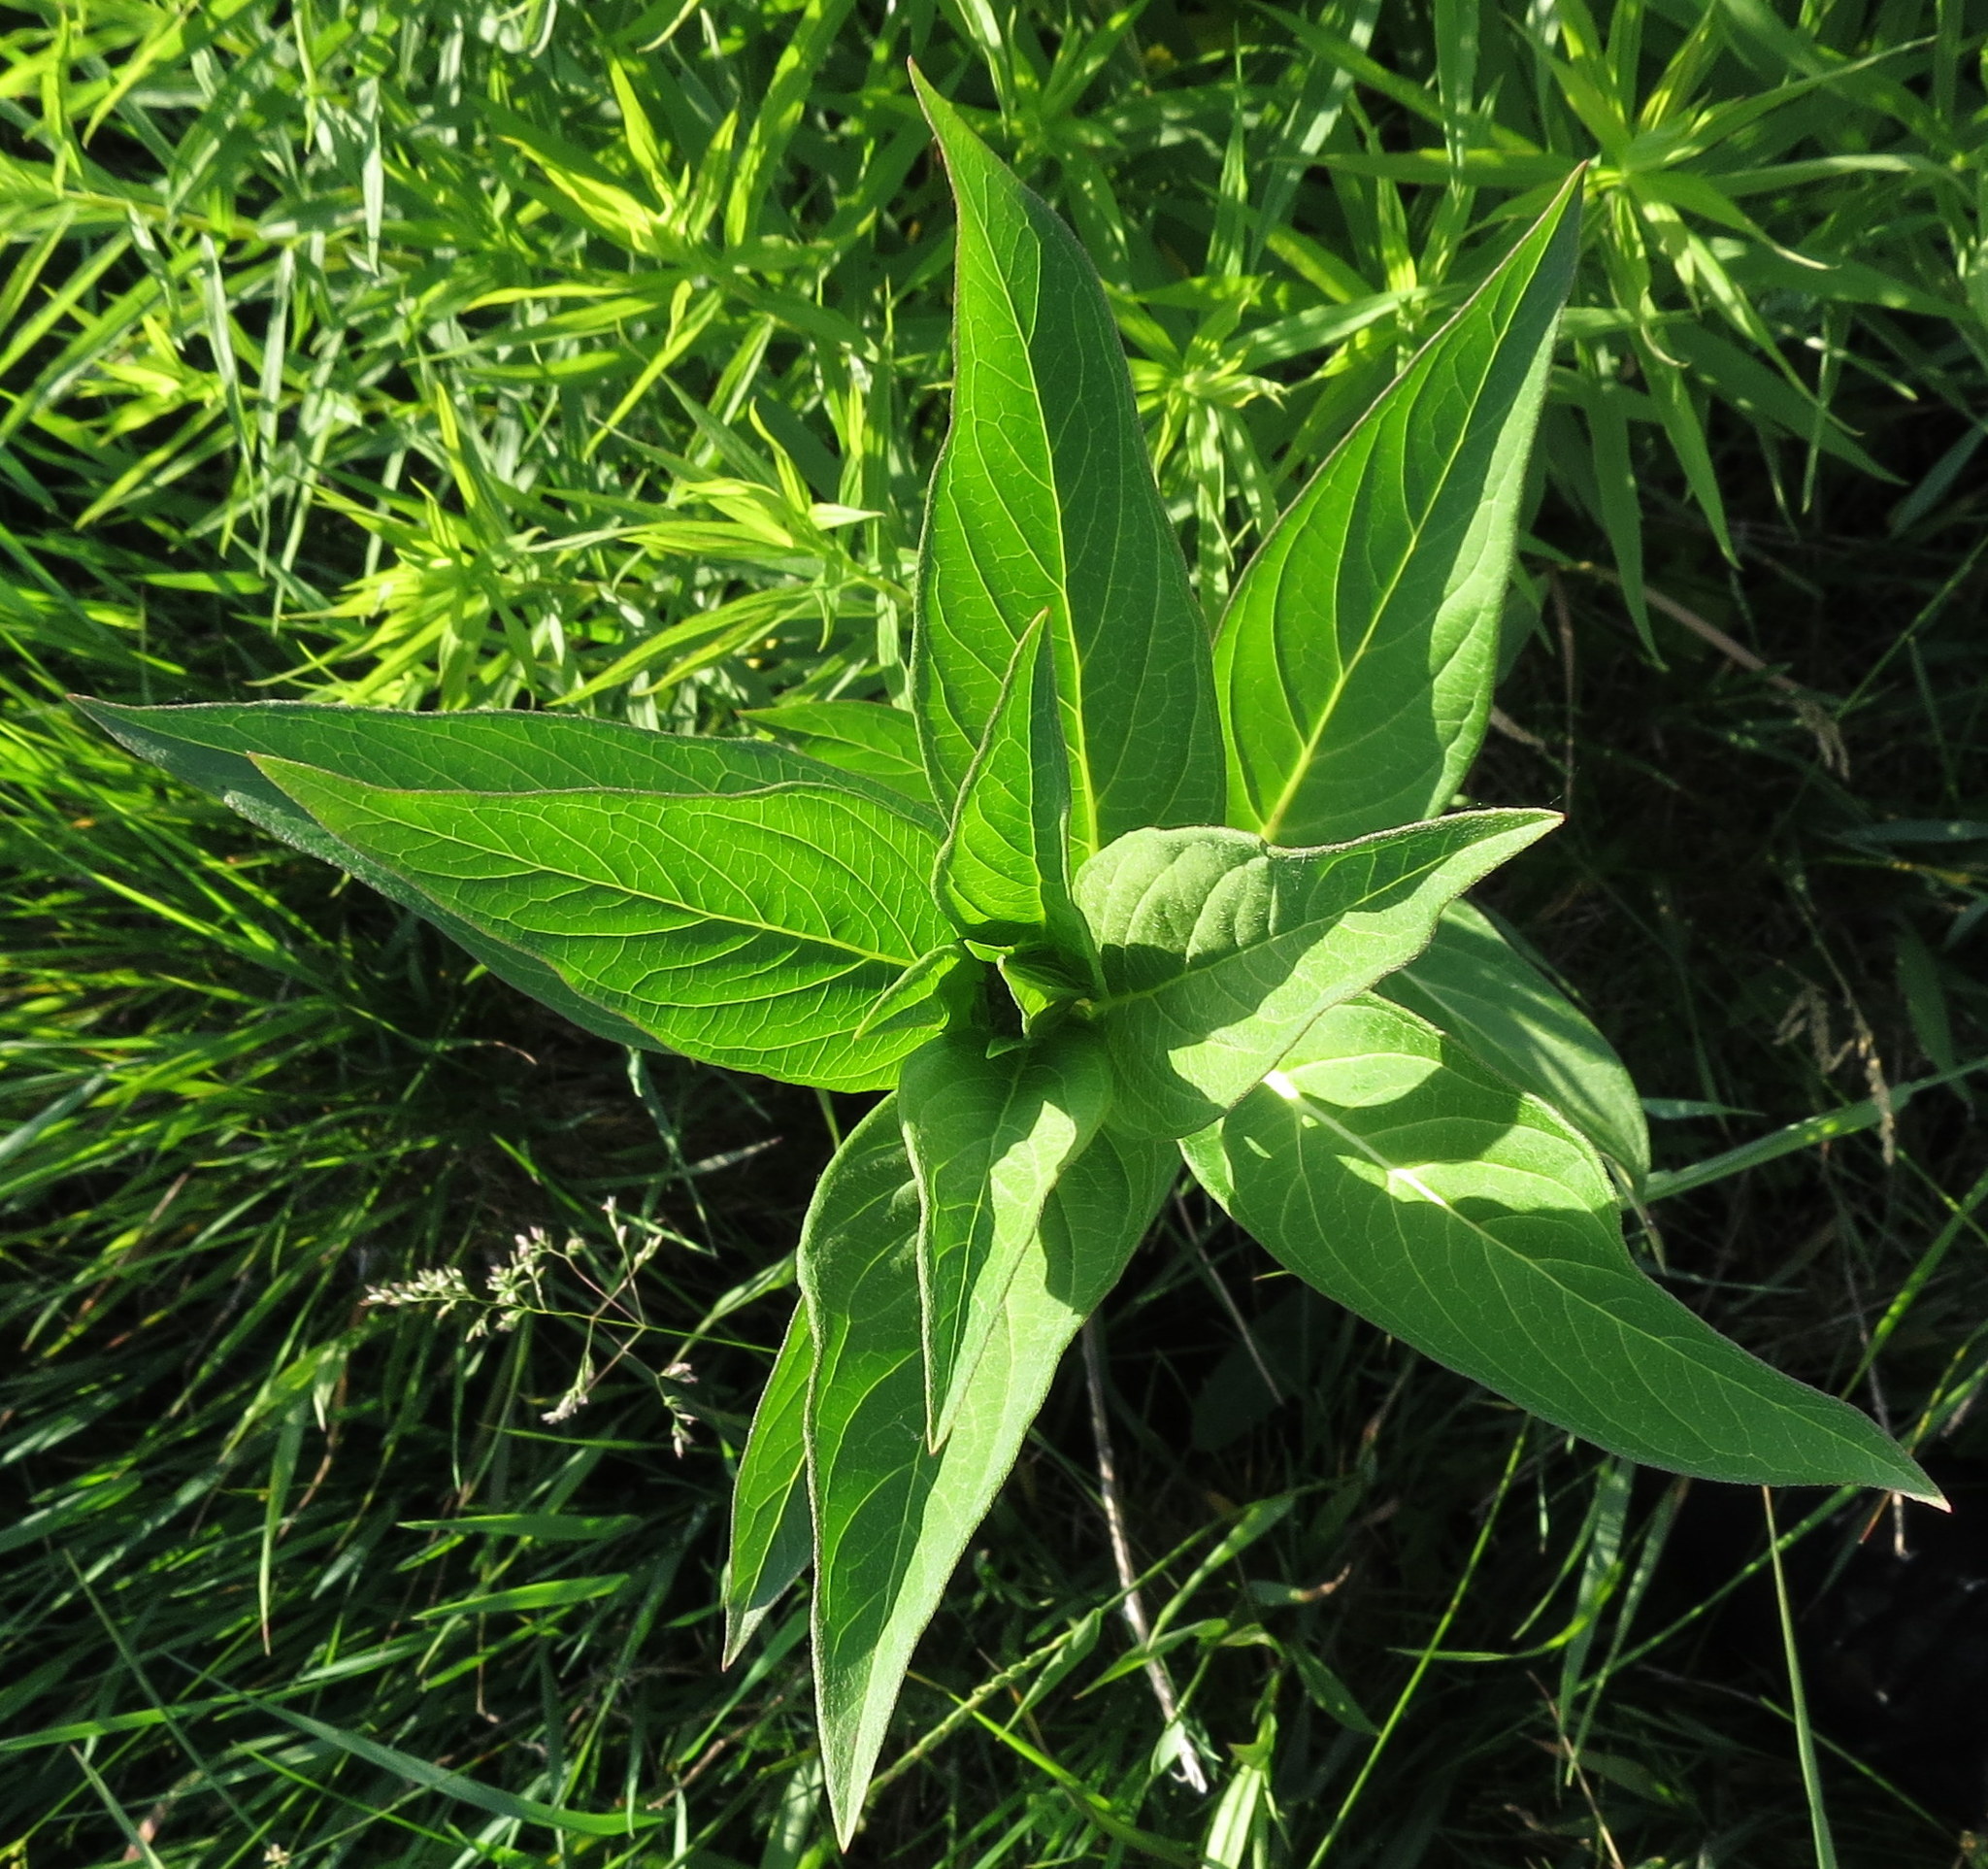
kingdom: Plantae
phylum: Tracheophyta
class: Magnoliopsida
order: Gentianales
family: Apocynaceae
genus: Asclepias
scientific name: Asclepias incarnata
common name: Swamp milkweed
